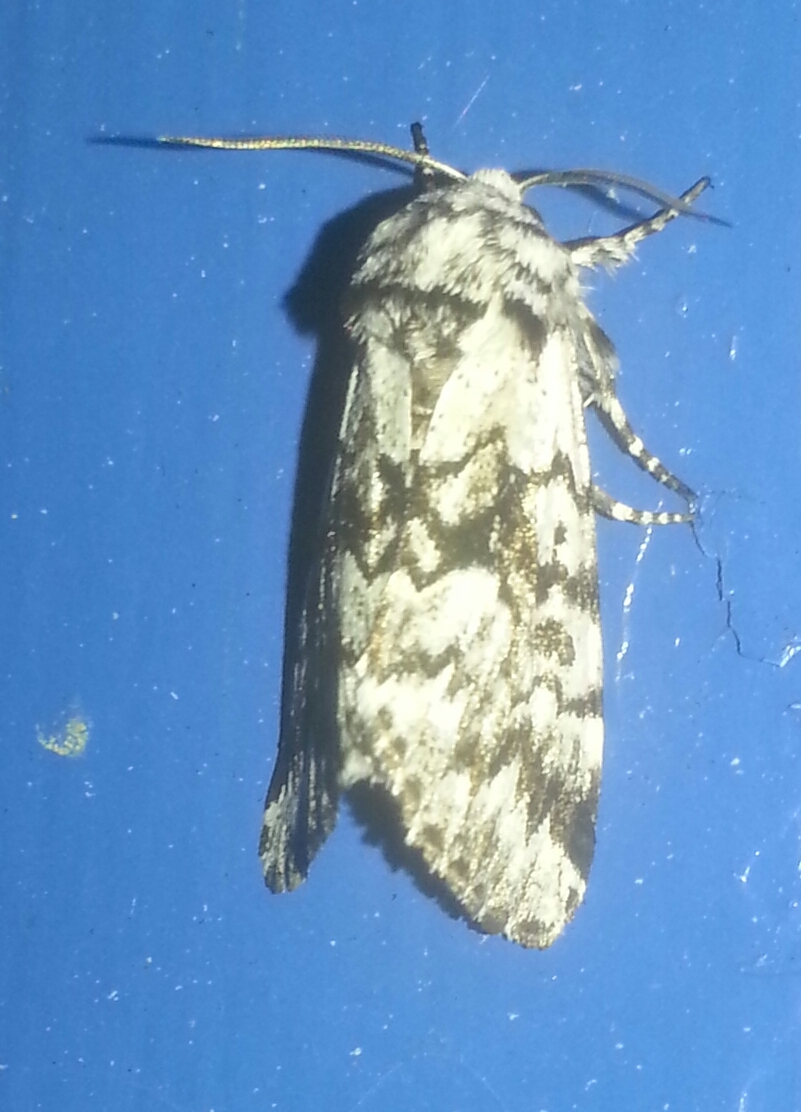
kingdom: Animalia
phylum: Arthropoda
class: Insecta
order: Lepidoptera
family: Noctuidae
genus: Panthea
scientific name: Panthea acronyctoides
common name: Black zigzag moth
